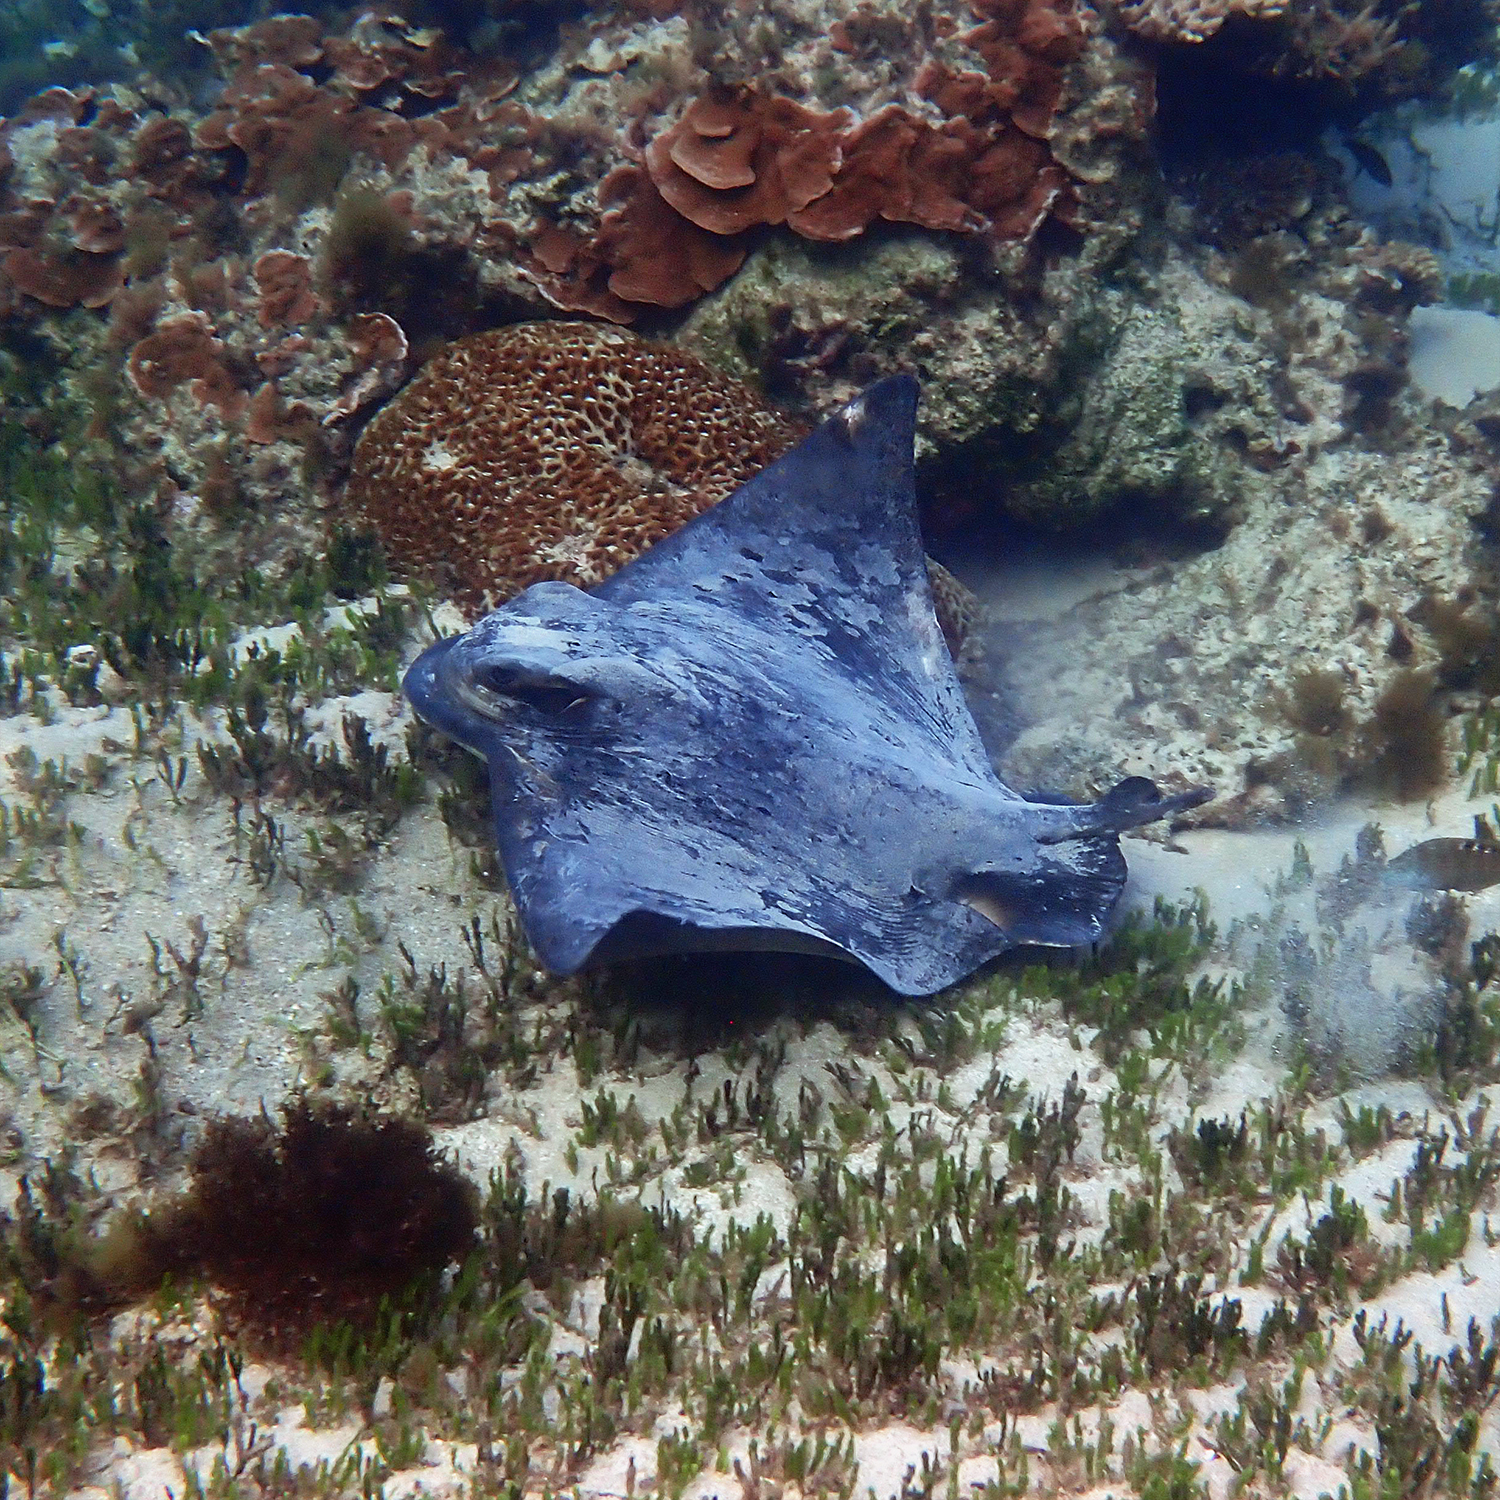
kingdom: Animalia
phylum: Chordata
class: Elasmobranchii
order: Myliobatiformes
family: Myliobatidae
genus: Myliobatis
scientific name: Myliobatis tenuicaudatus
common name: Eagle ray
